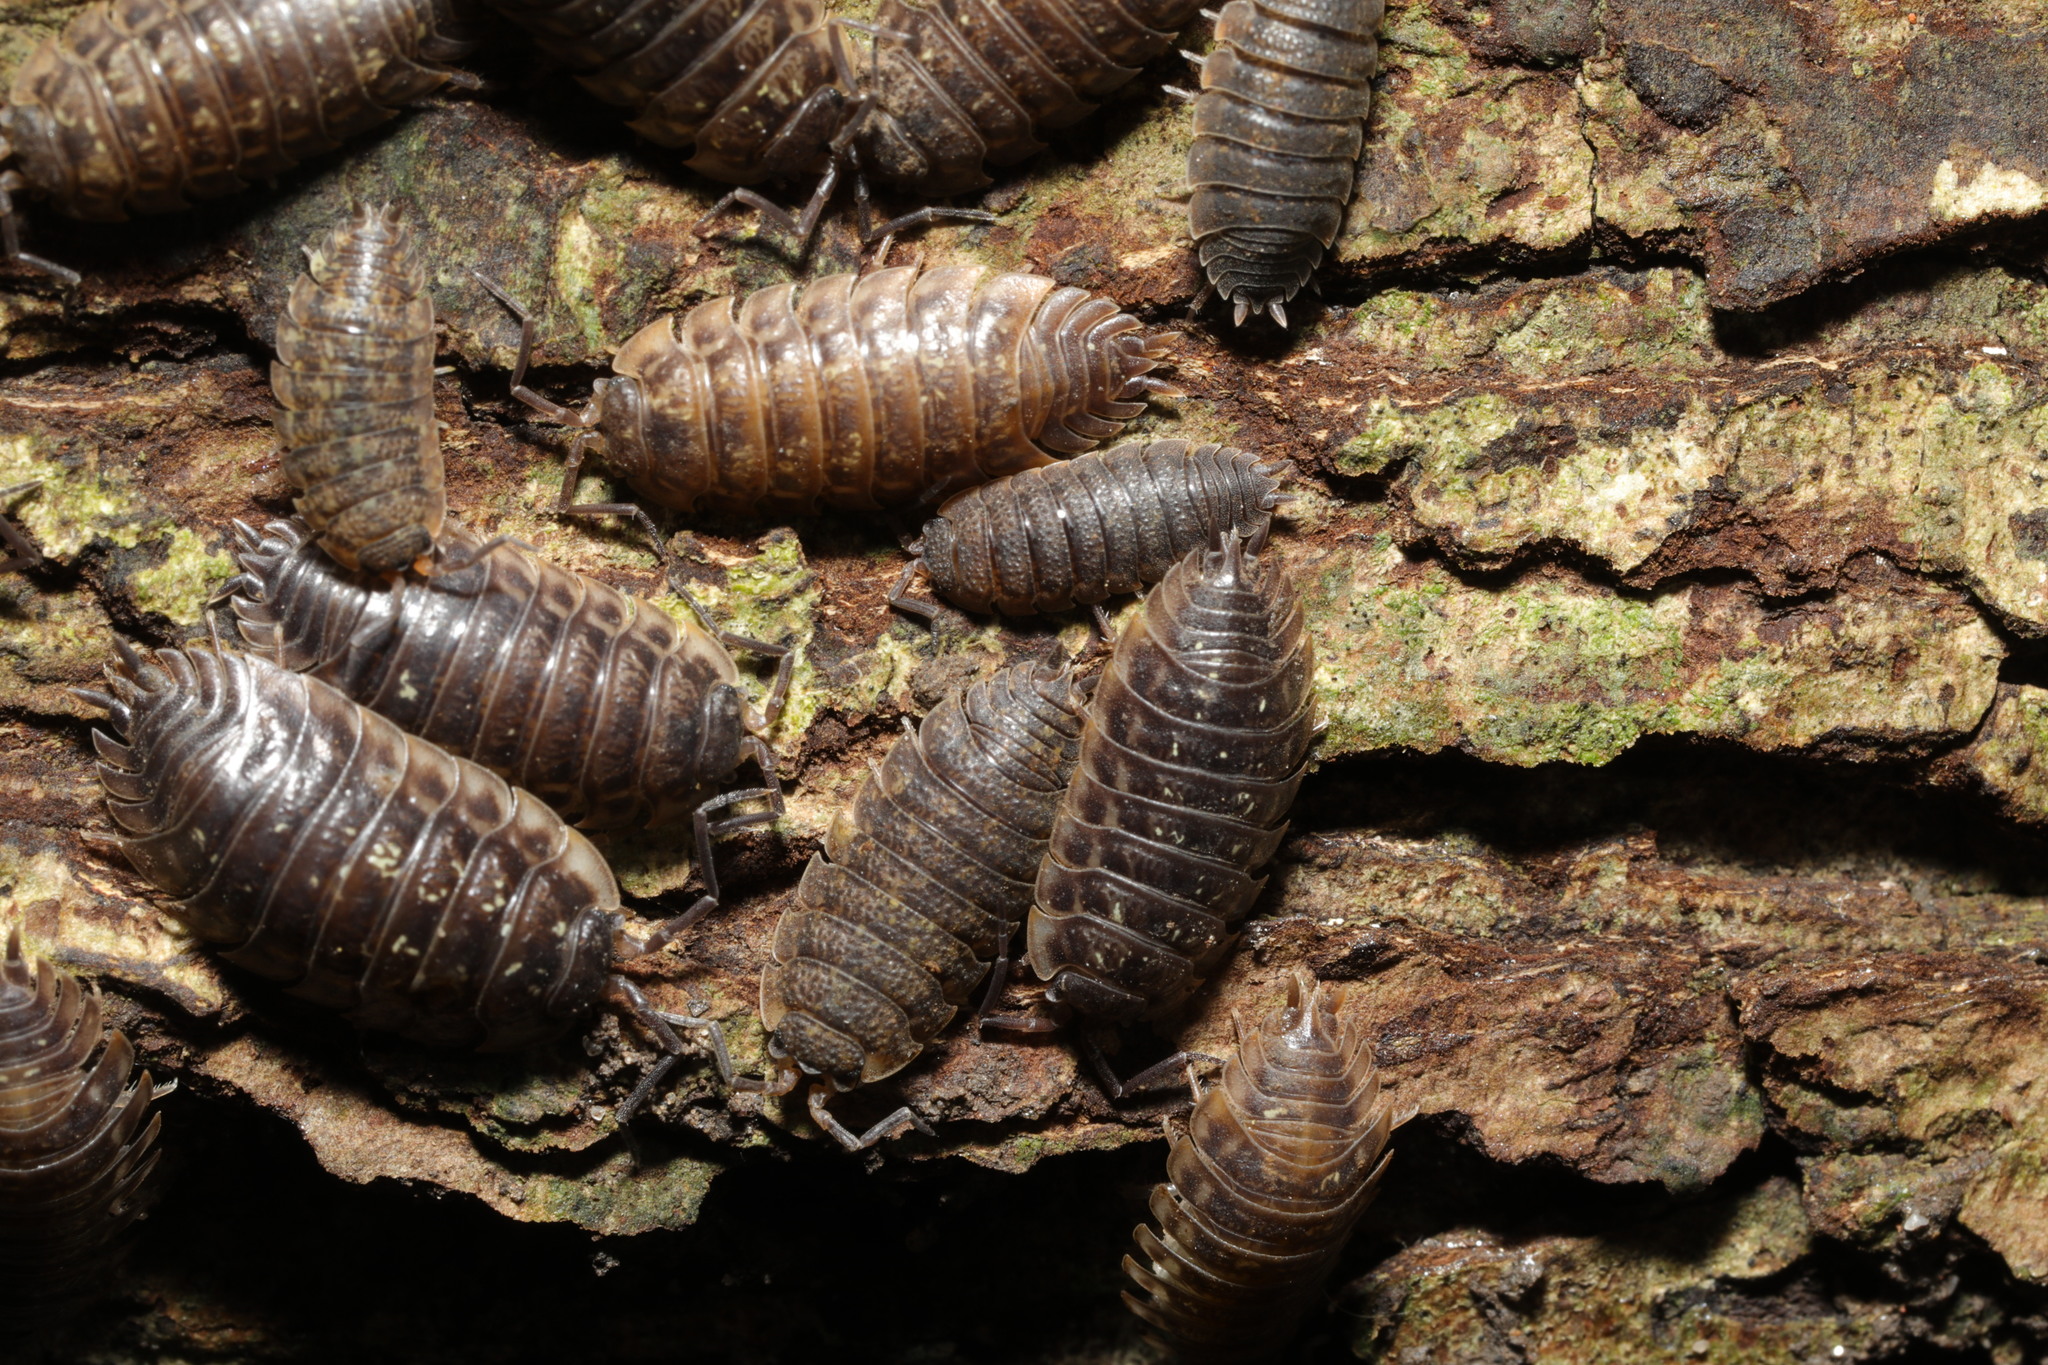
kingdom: Animalia
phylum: Arthropoda
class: Malacostraca
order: Isopoda
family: Oniscidae
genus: Oniscus
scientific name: Oniscus asellus
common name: Common shiny woodlouse
